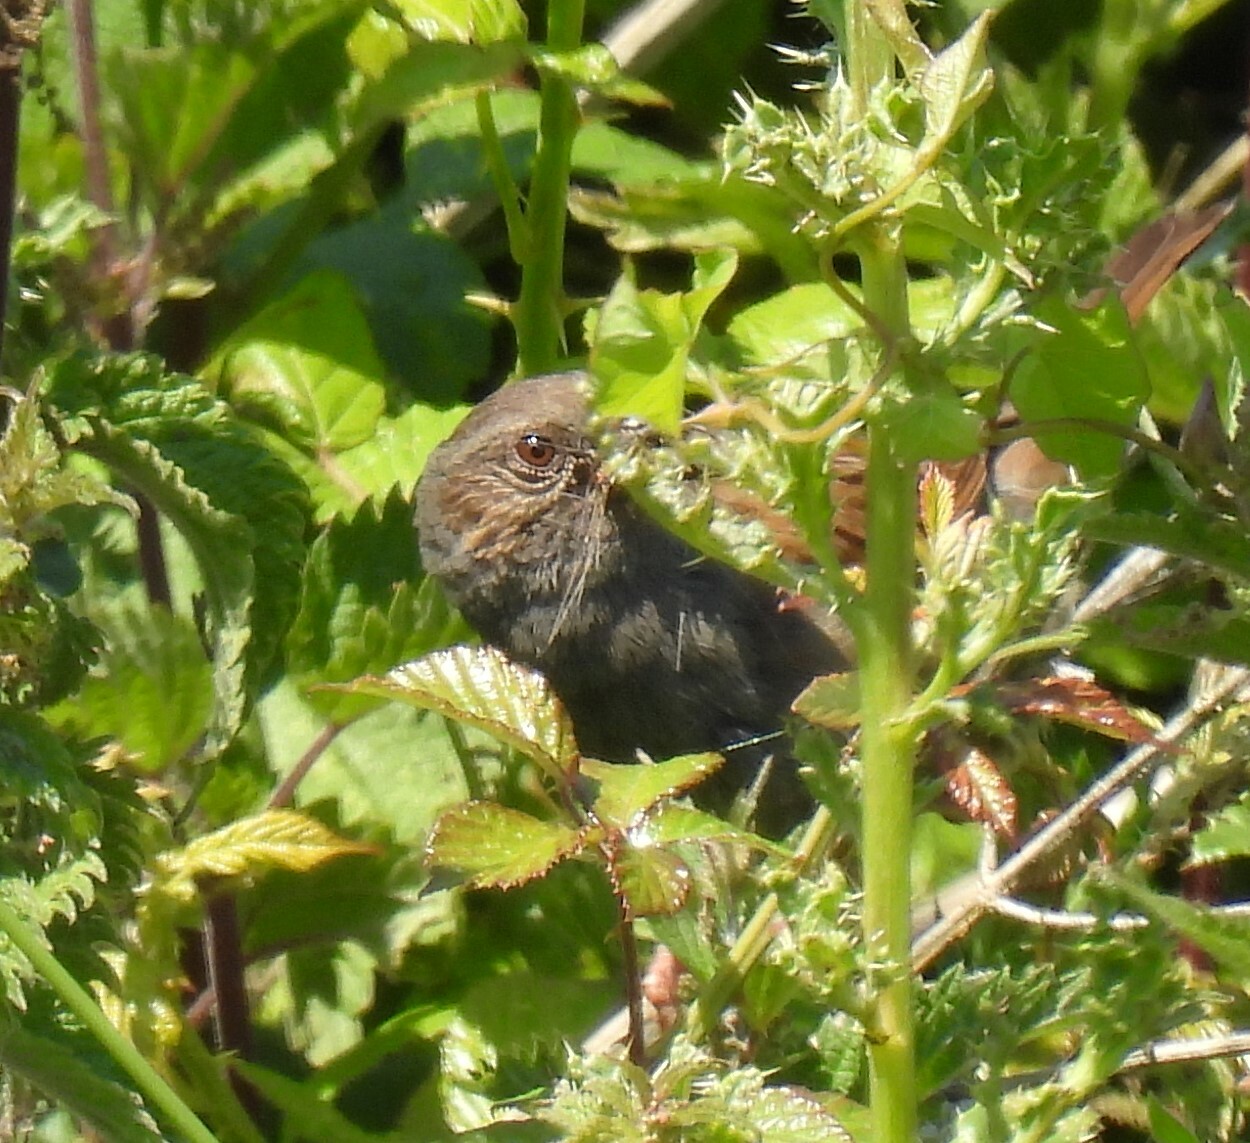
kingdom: Animalia
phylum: Chordata
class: Aves
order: Passeriformes
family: Prunellidae
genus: Prunella
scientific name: Prunella modularis
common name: Dunnock
